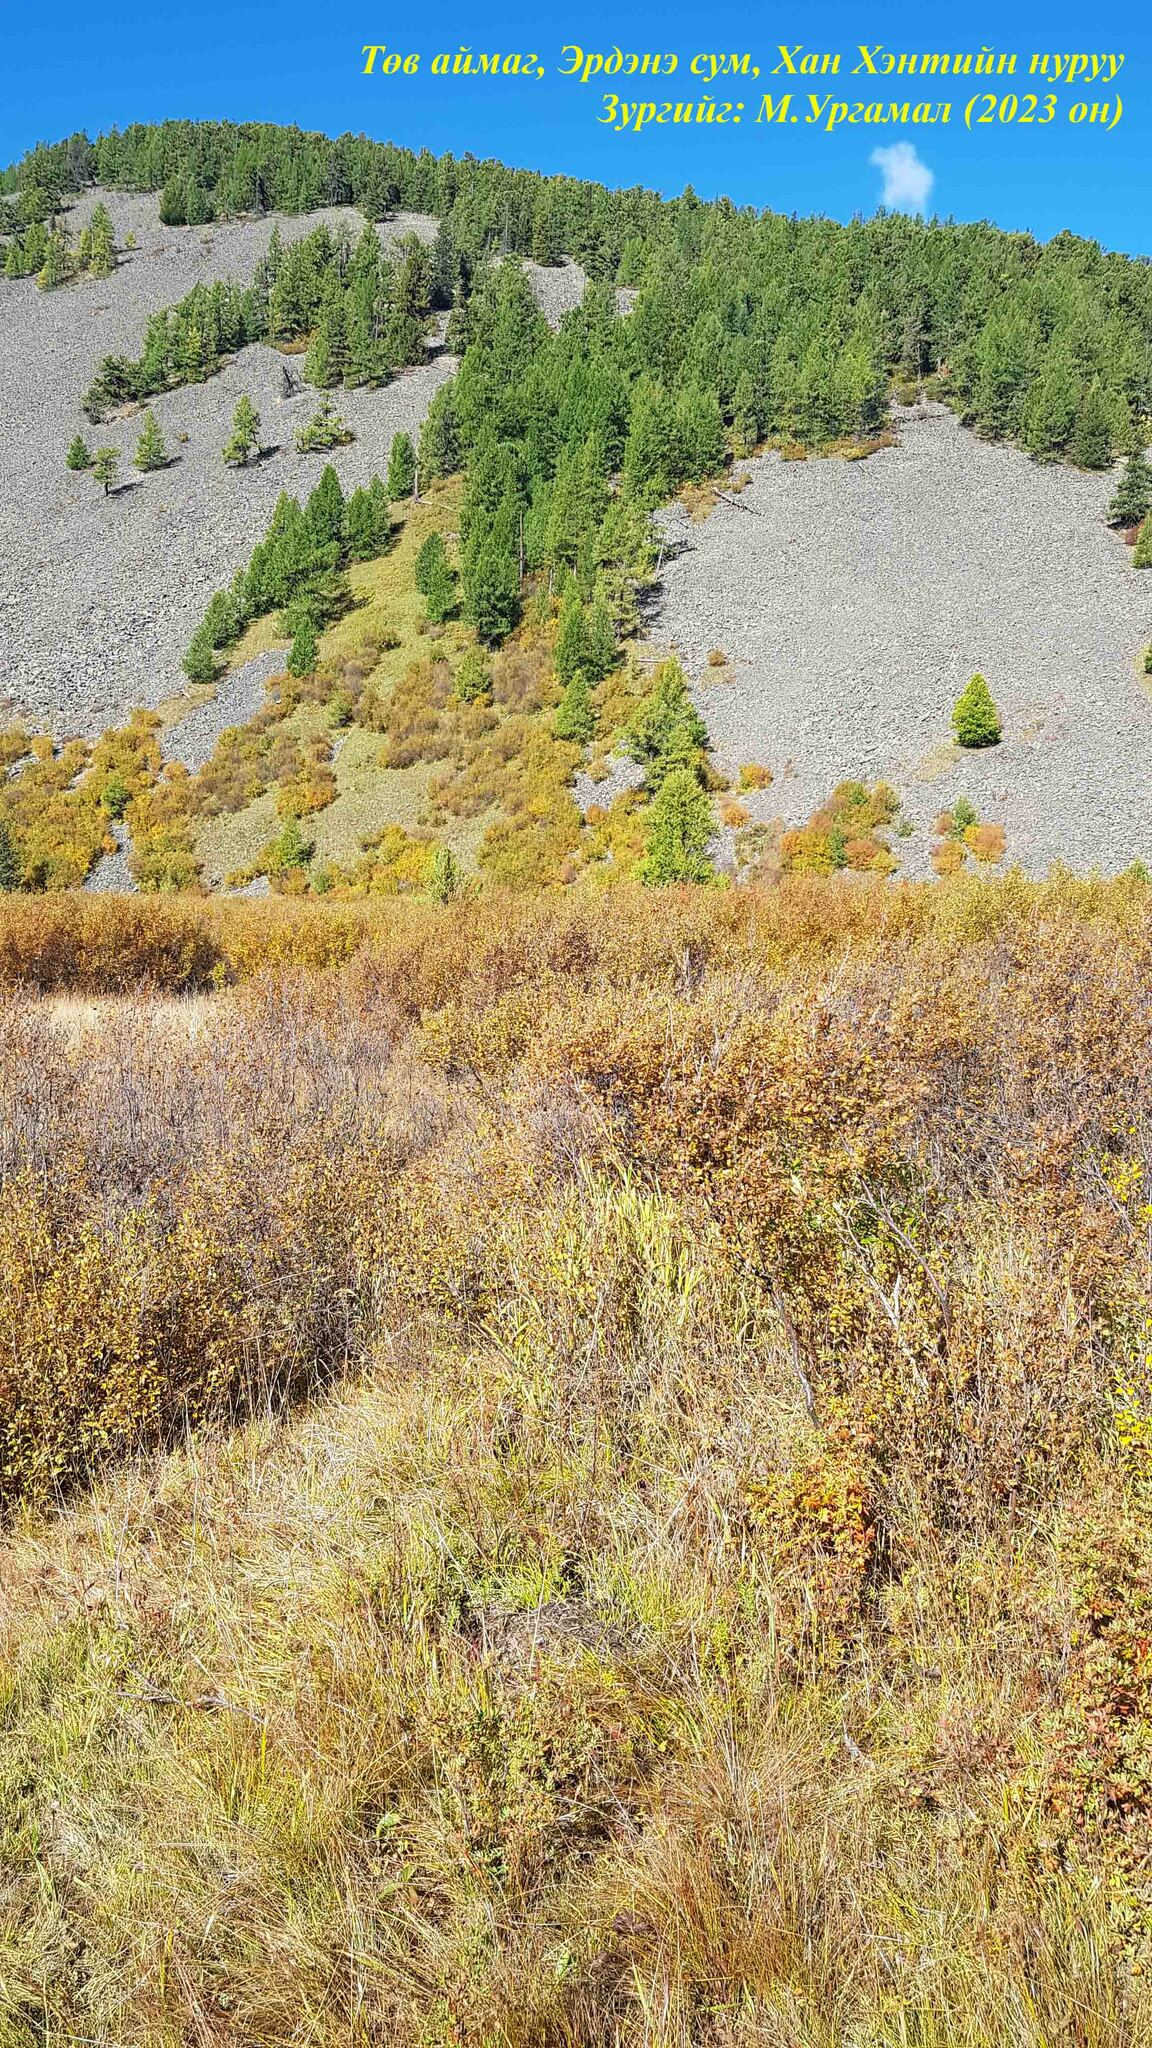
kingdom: Plantae
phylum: Tracheophyta
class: Magnoliopsida
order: Fagales
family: Betulaceae
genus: Betula
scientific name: Betula nana
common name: Arctic dwarf birch
